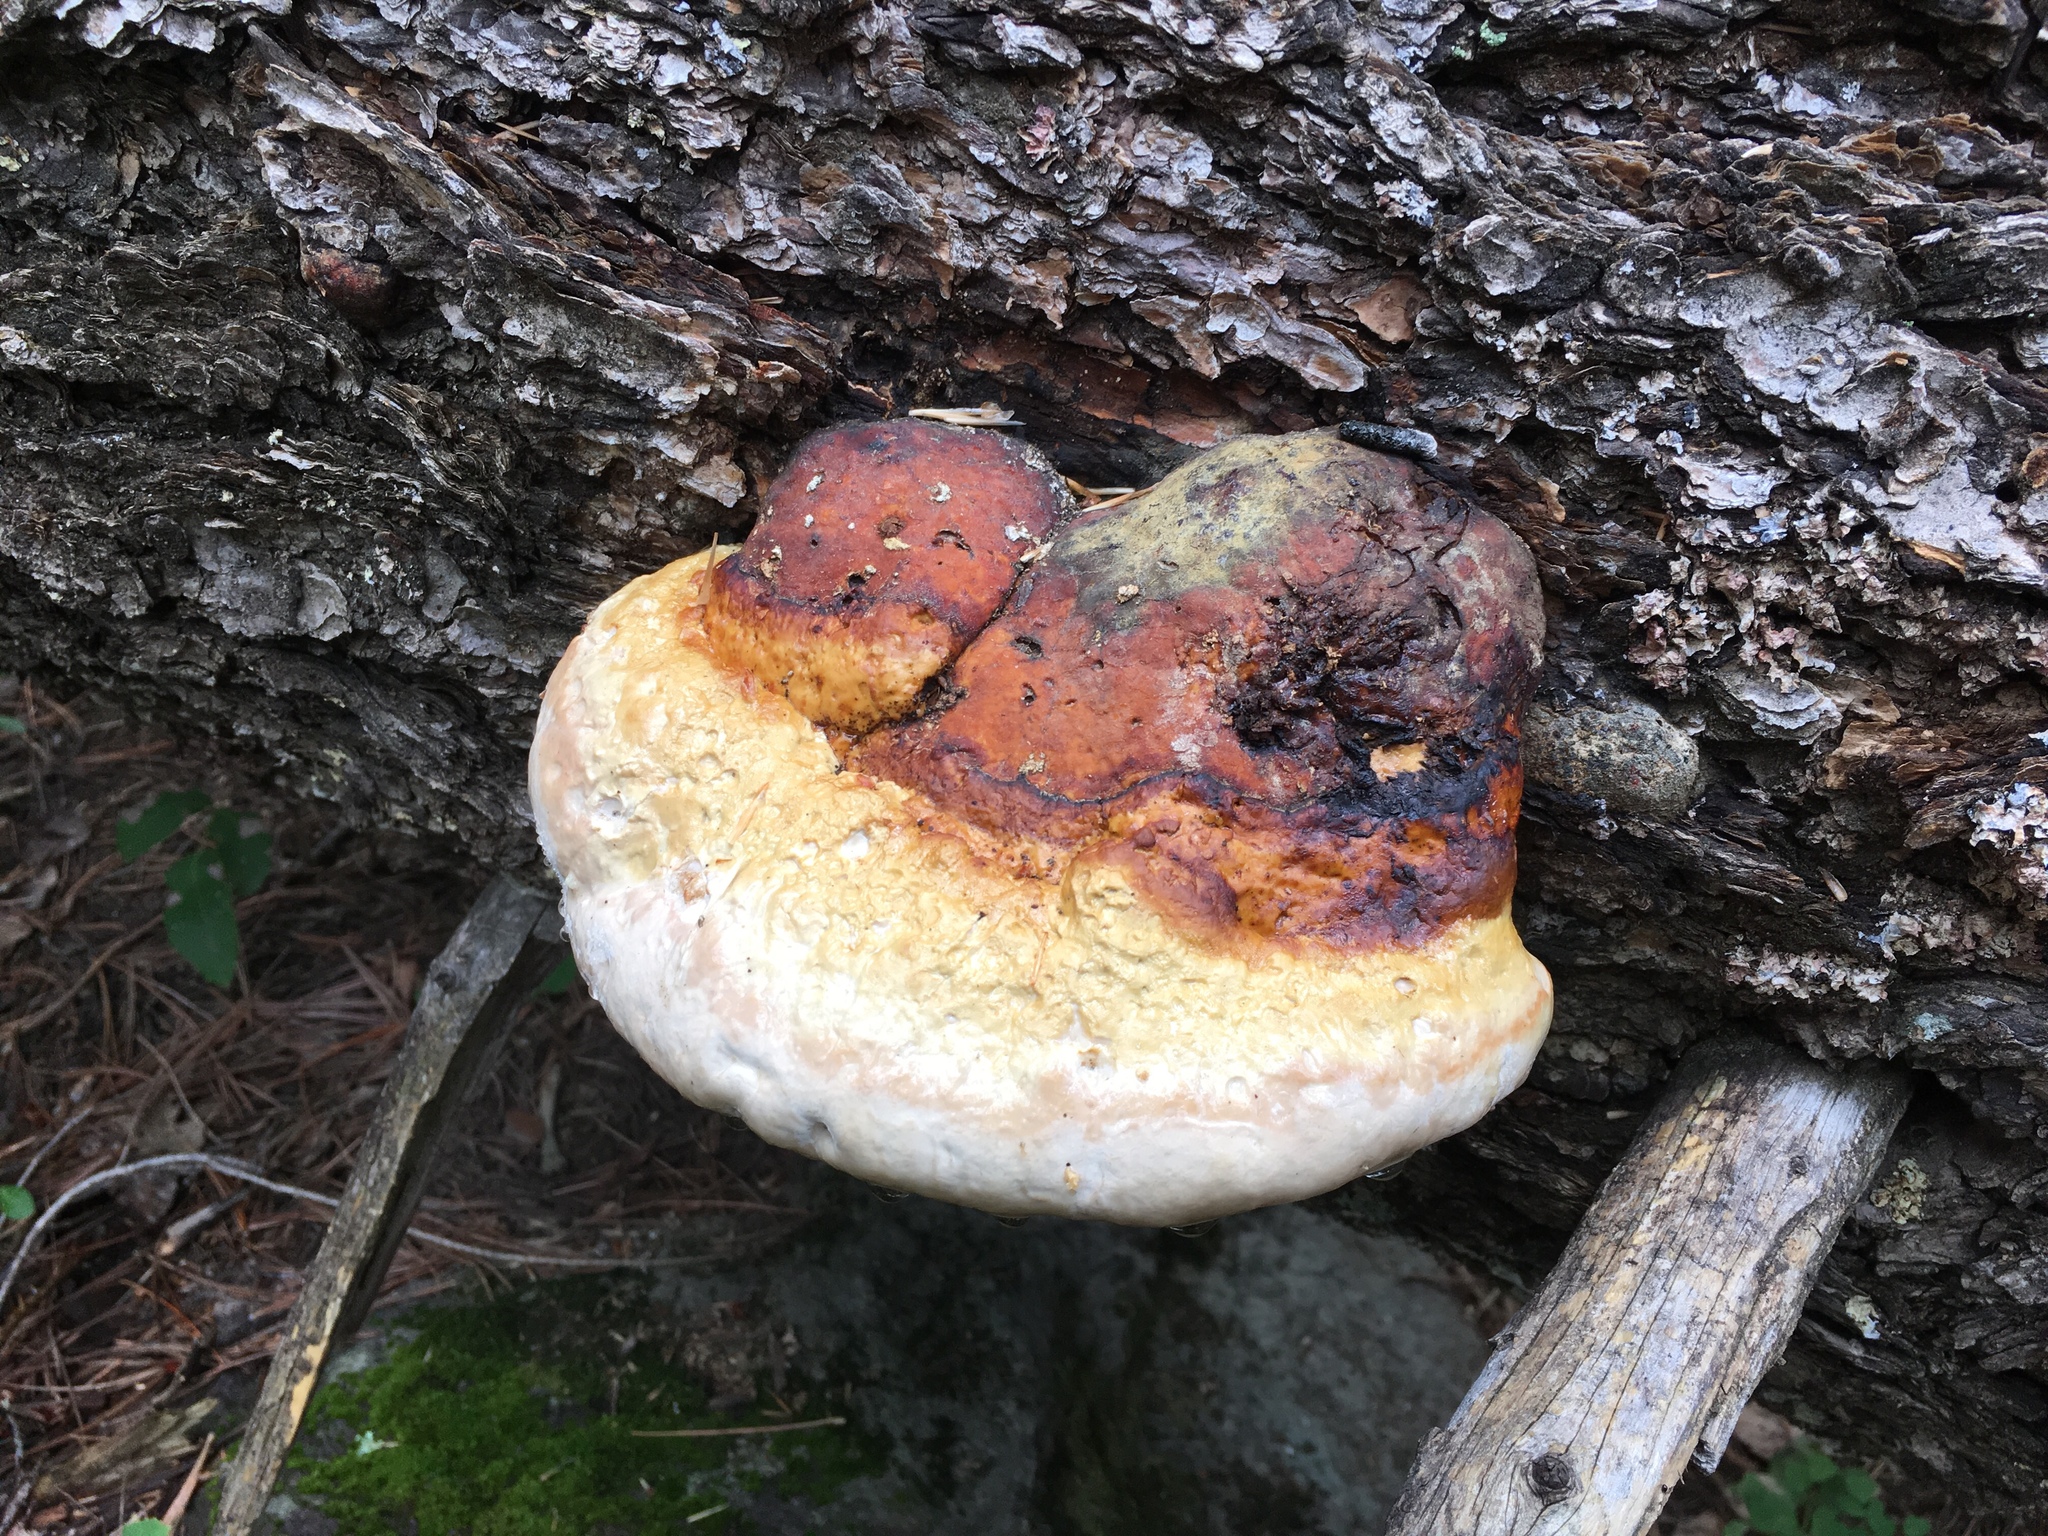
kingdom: Fungi
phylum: Basidiomycota
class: Agaricomycetes
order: Polyporales
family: Fomitopsidaceae
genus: Fomitopsis
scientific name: Fomitopsis schrenkii
